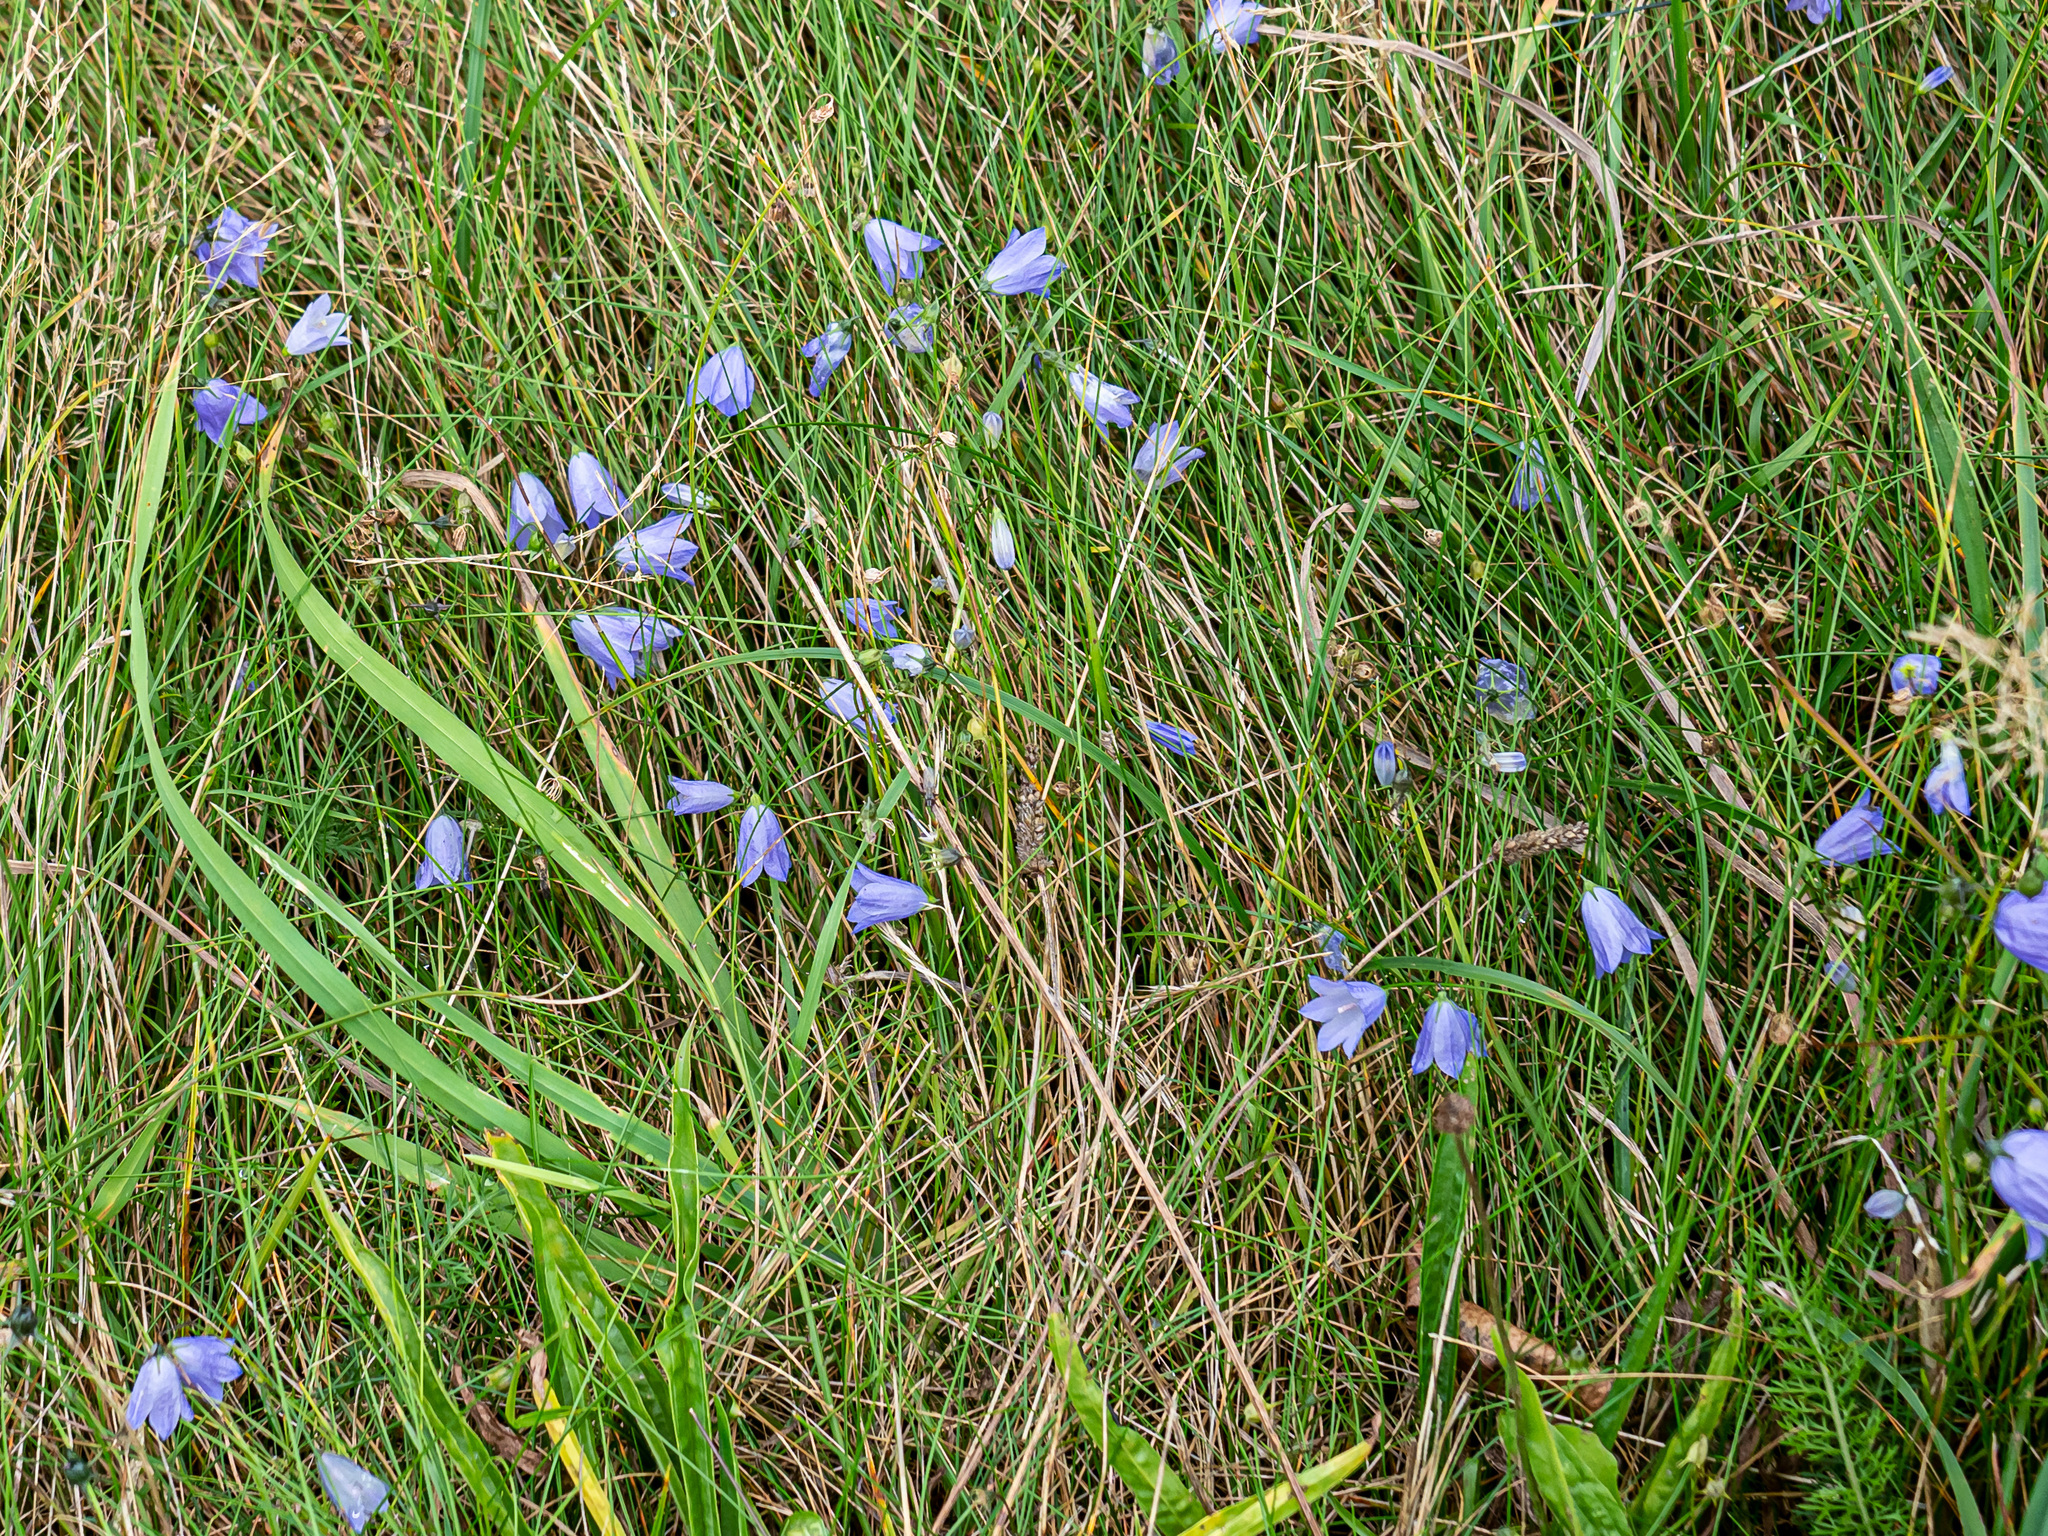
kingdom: Plantae
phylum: Tracheophyta
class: Magnoliopsida
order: Asterales
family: Campanulaceae
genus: Campanula
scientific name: Campanula rotundifolia
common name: Harebell
